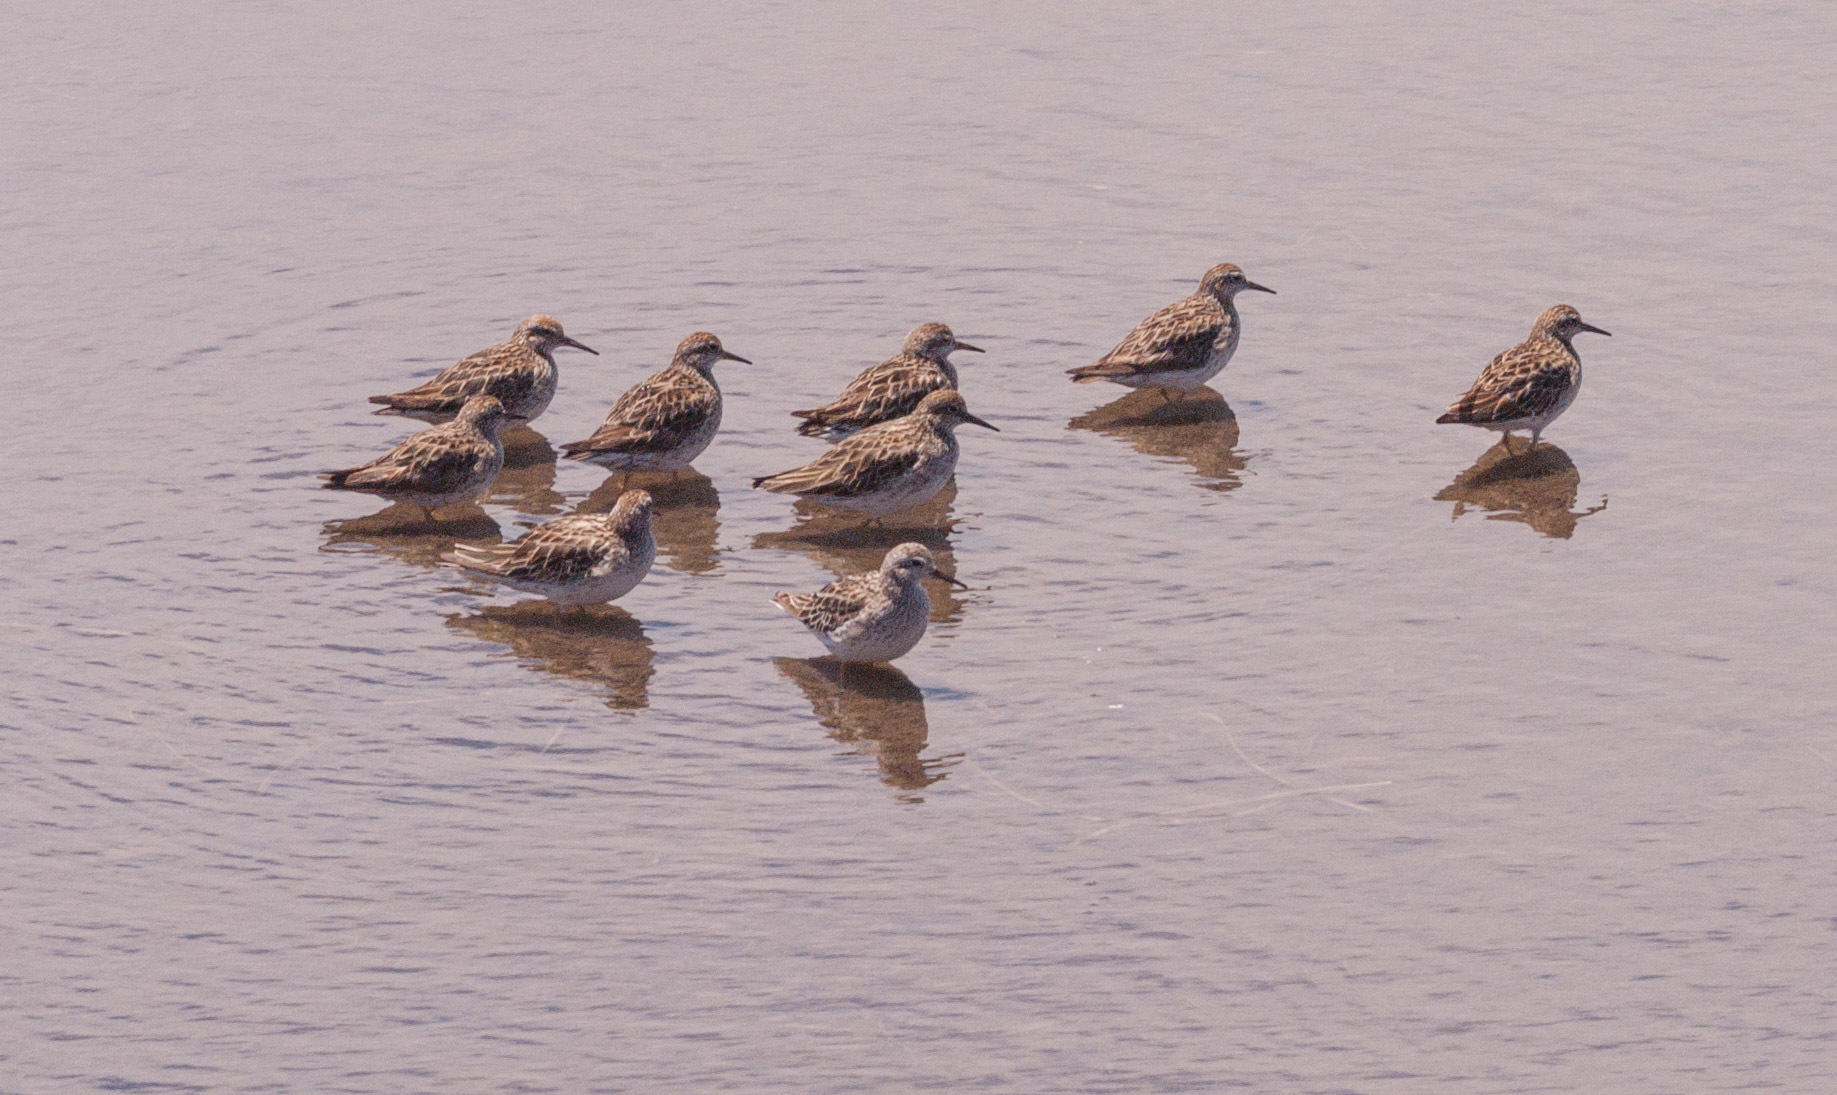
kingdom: Animalia
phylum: Chordata
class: Aves
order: Charadriiformes
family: Scolopacidae
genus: Calidris
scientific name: Calidris acuminata
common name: Sharp-tailed sandpiper
